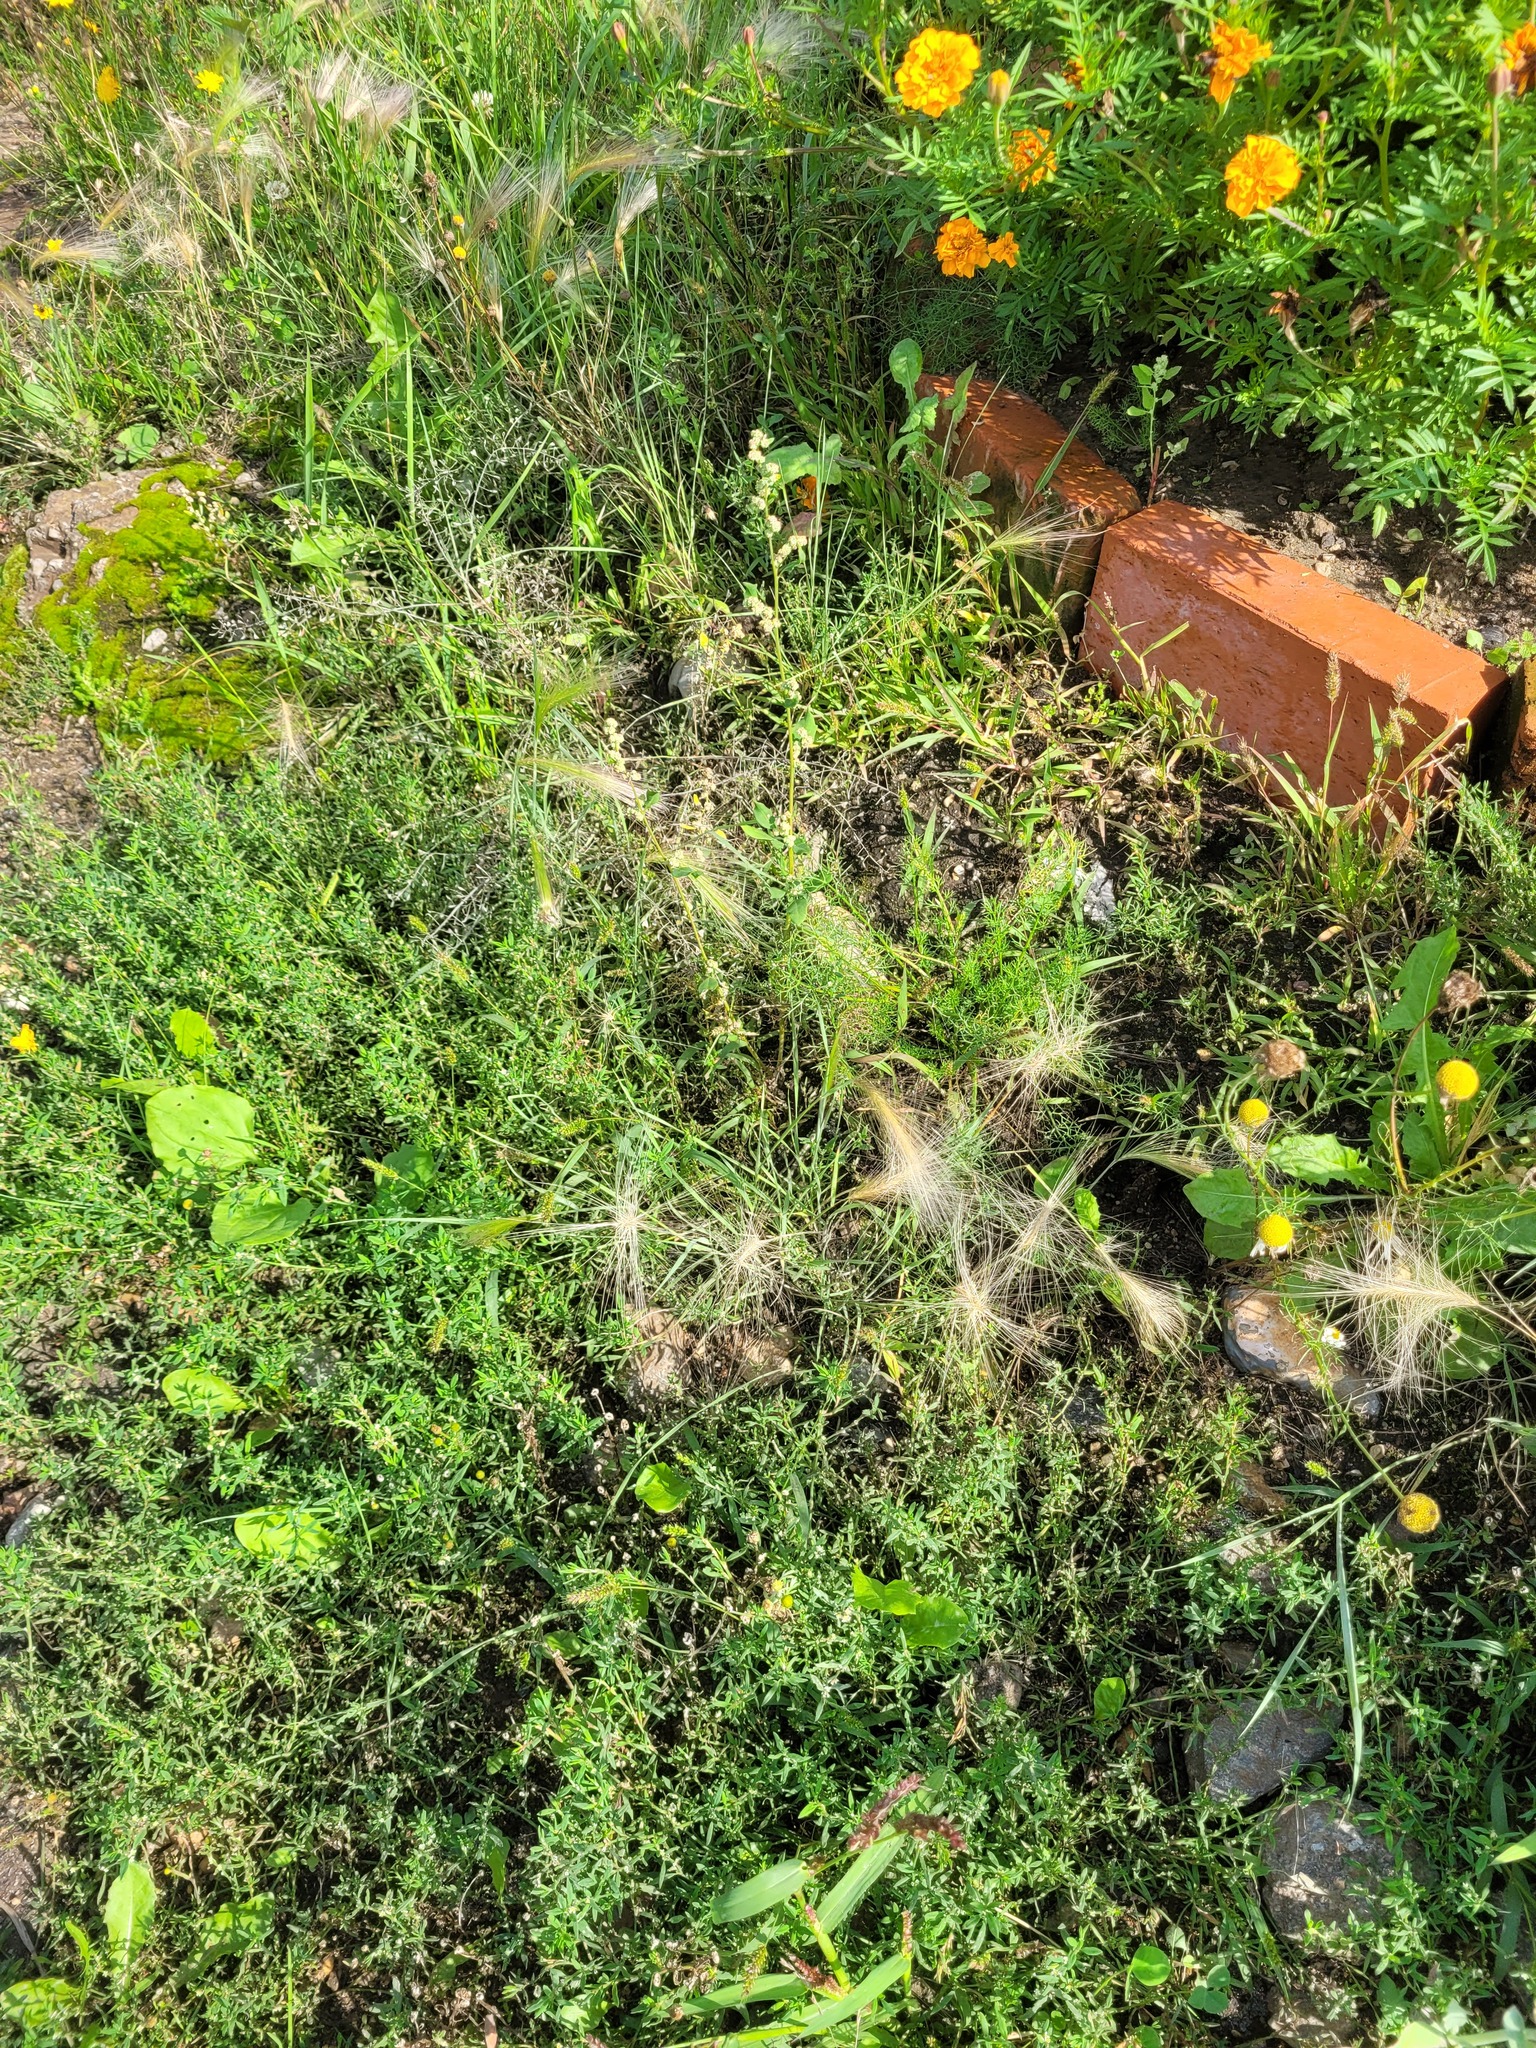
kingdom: Plantae
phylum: Tracheophyta
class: Liliopsida
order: Poales
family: Poaceae
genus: Hordeum
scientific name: Hordeum jubatum
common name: Foxtail barley
